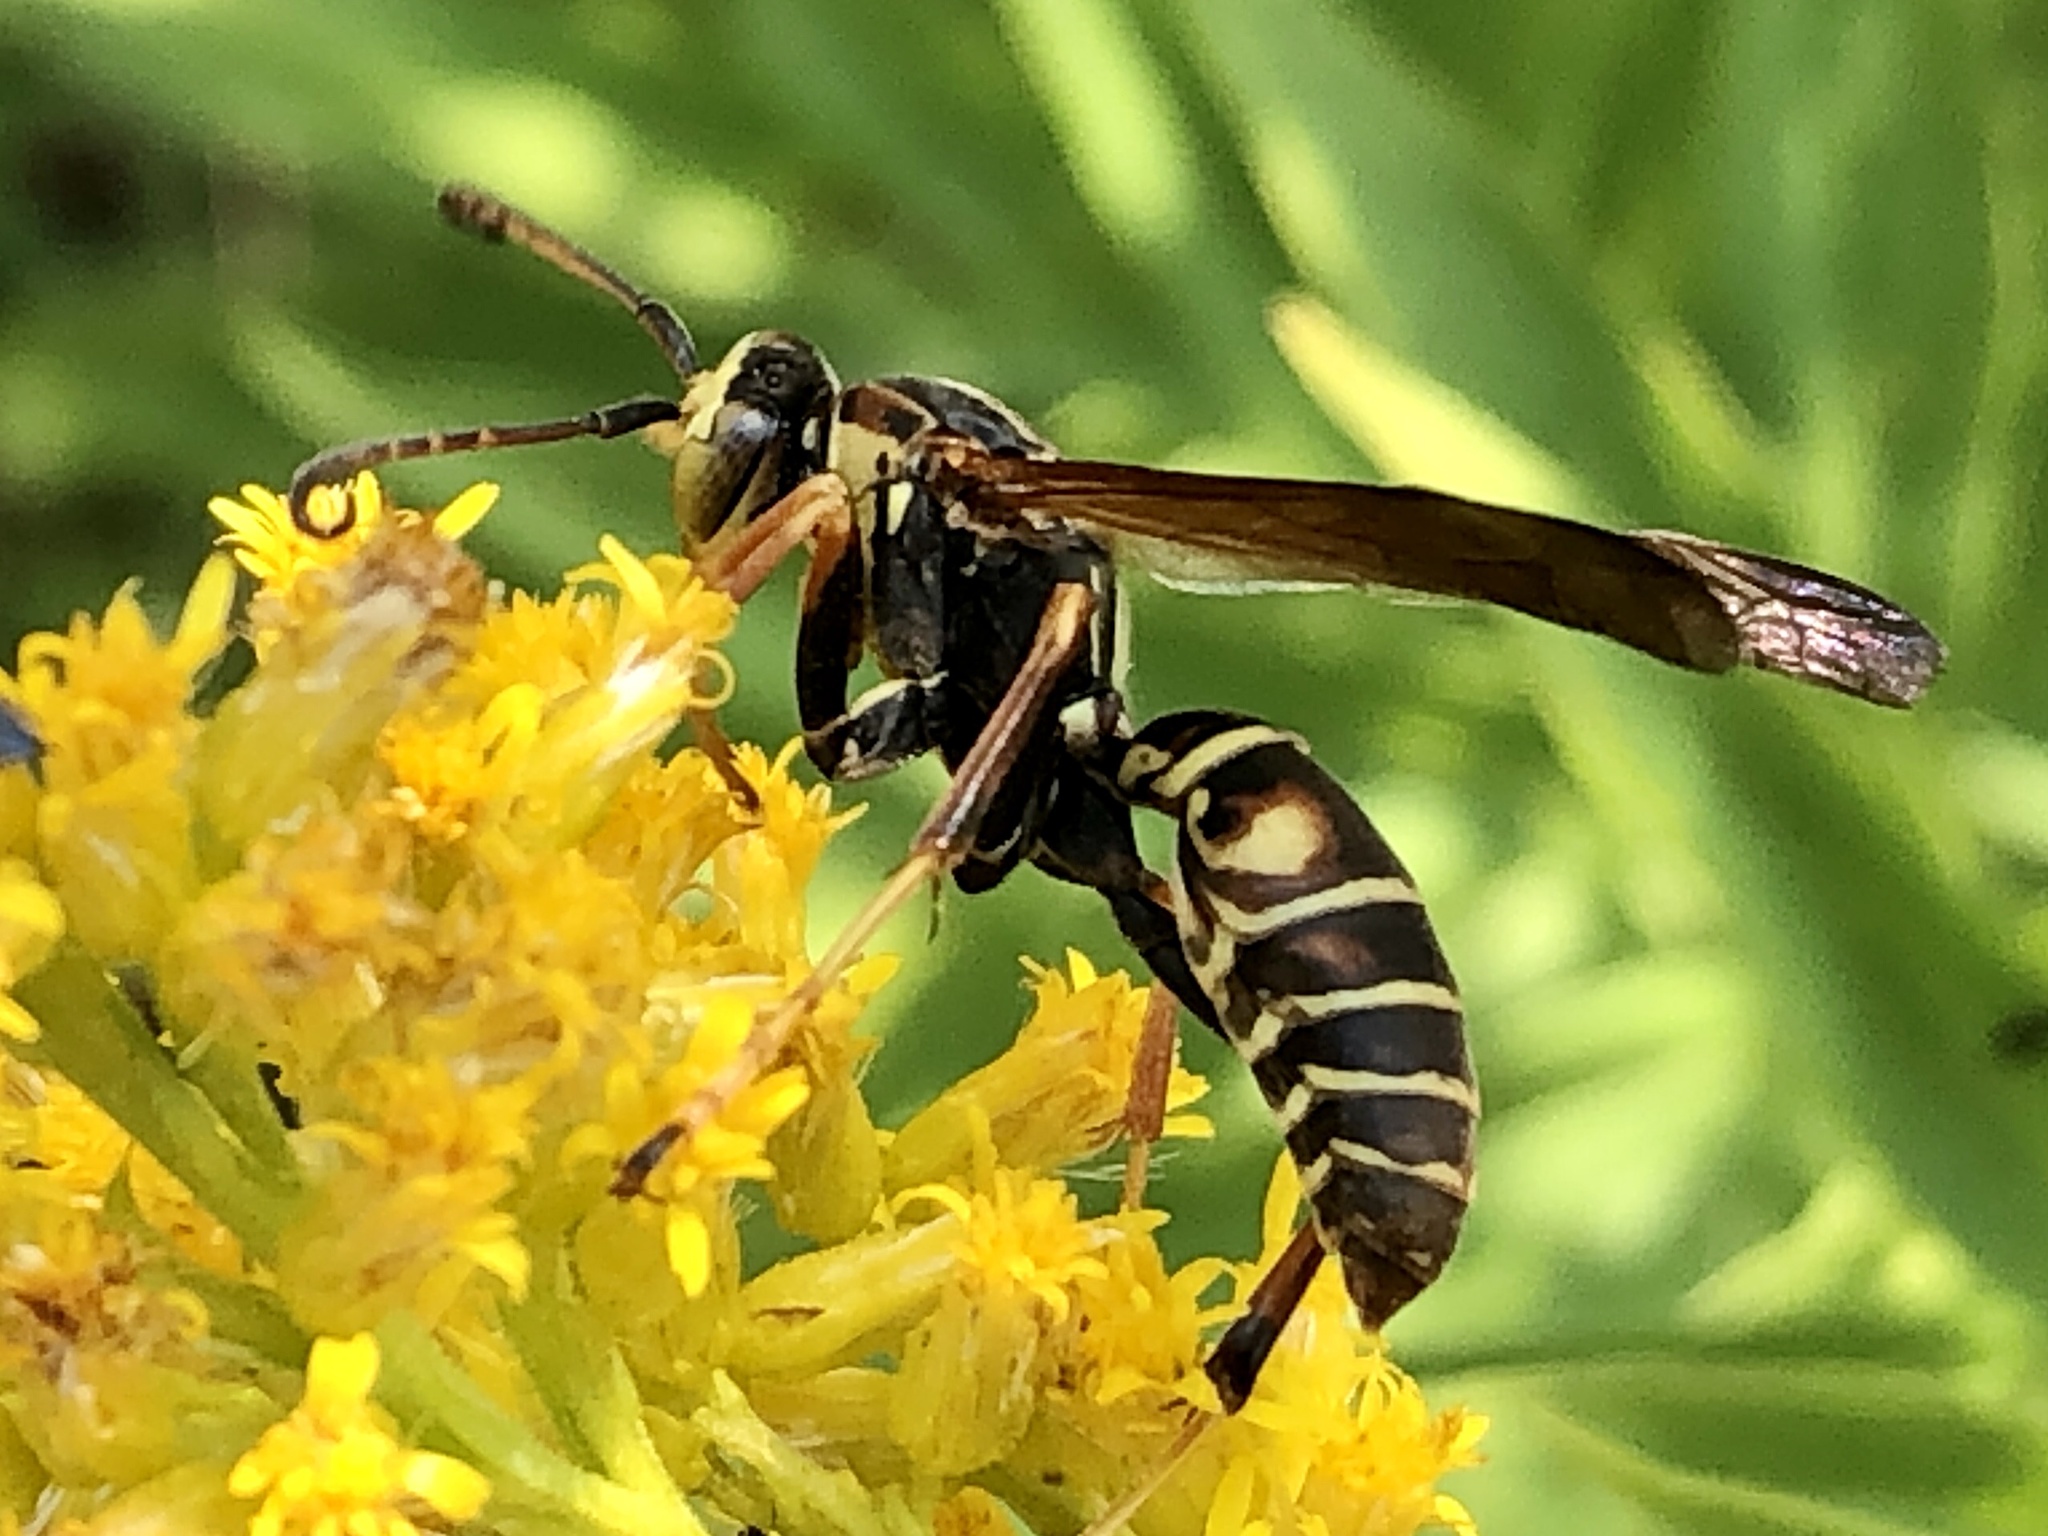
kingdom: Animalia
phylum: Arthropoda
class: Insecta
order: Hymenoptera
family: Eumenidae
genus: Polistes
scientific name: Polistes fuscatus
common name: Dark paper wasp
